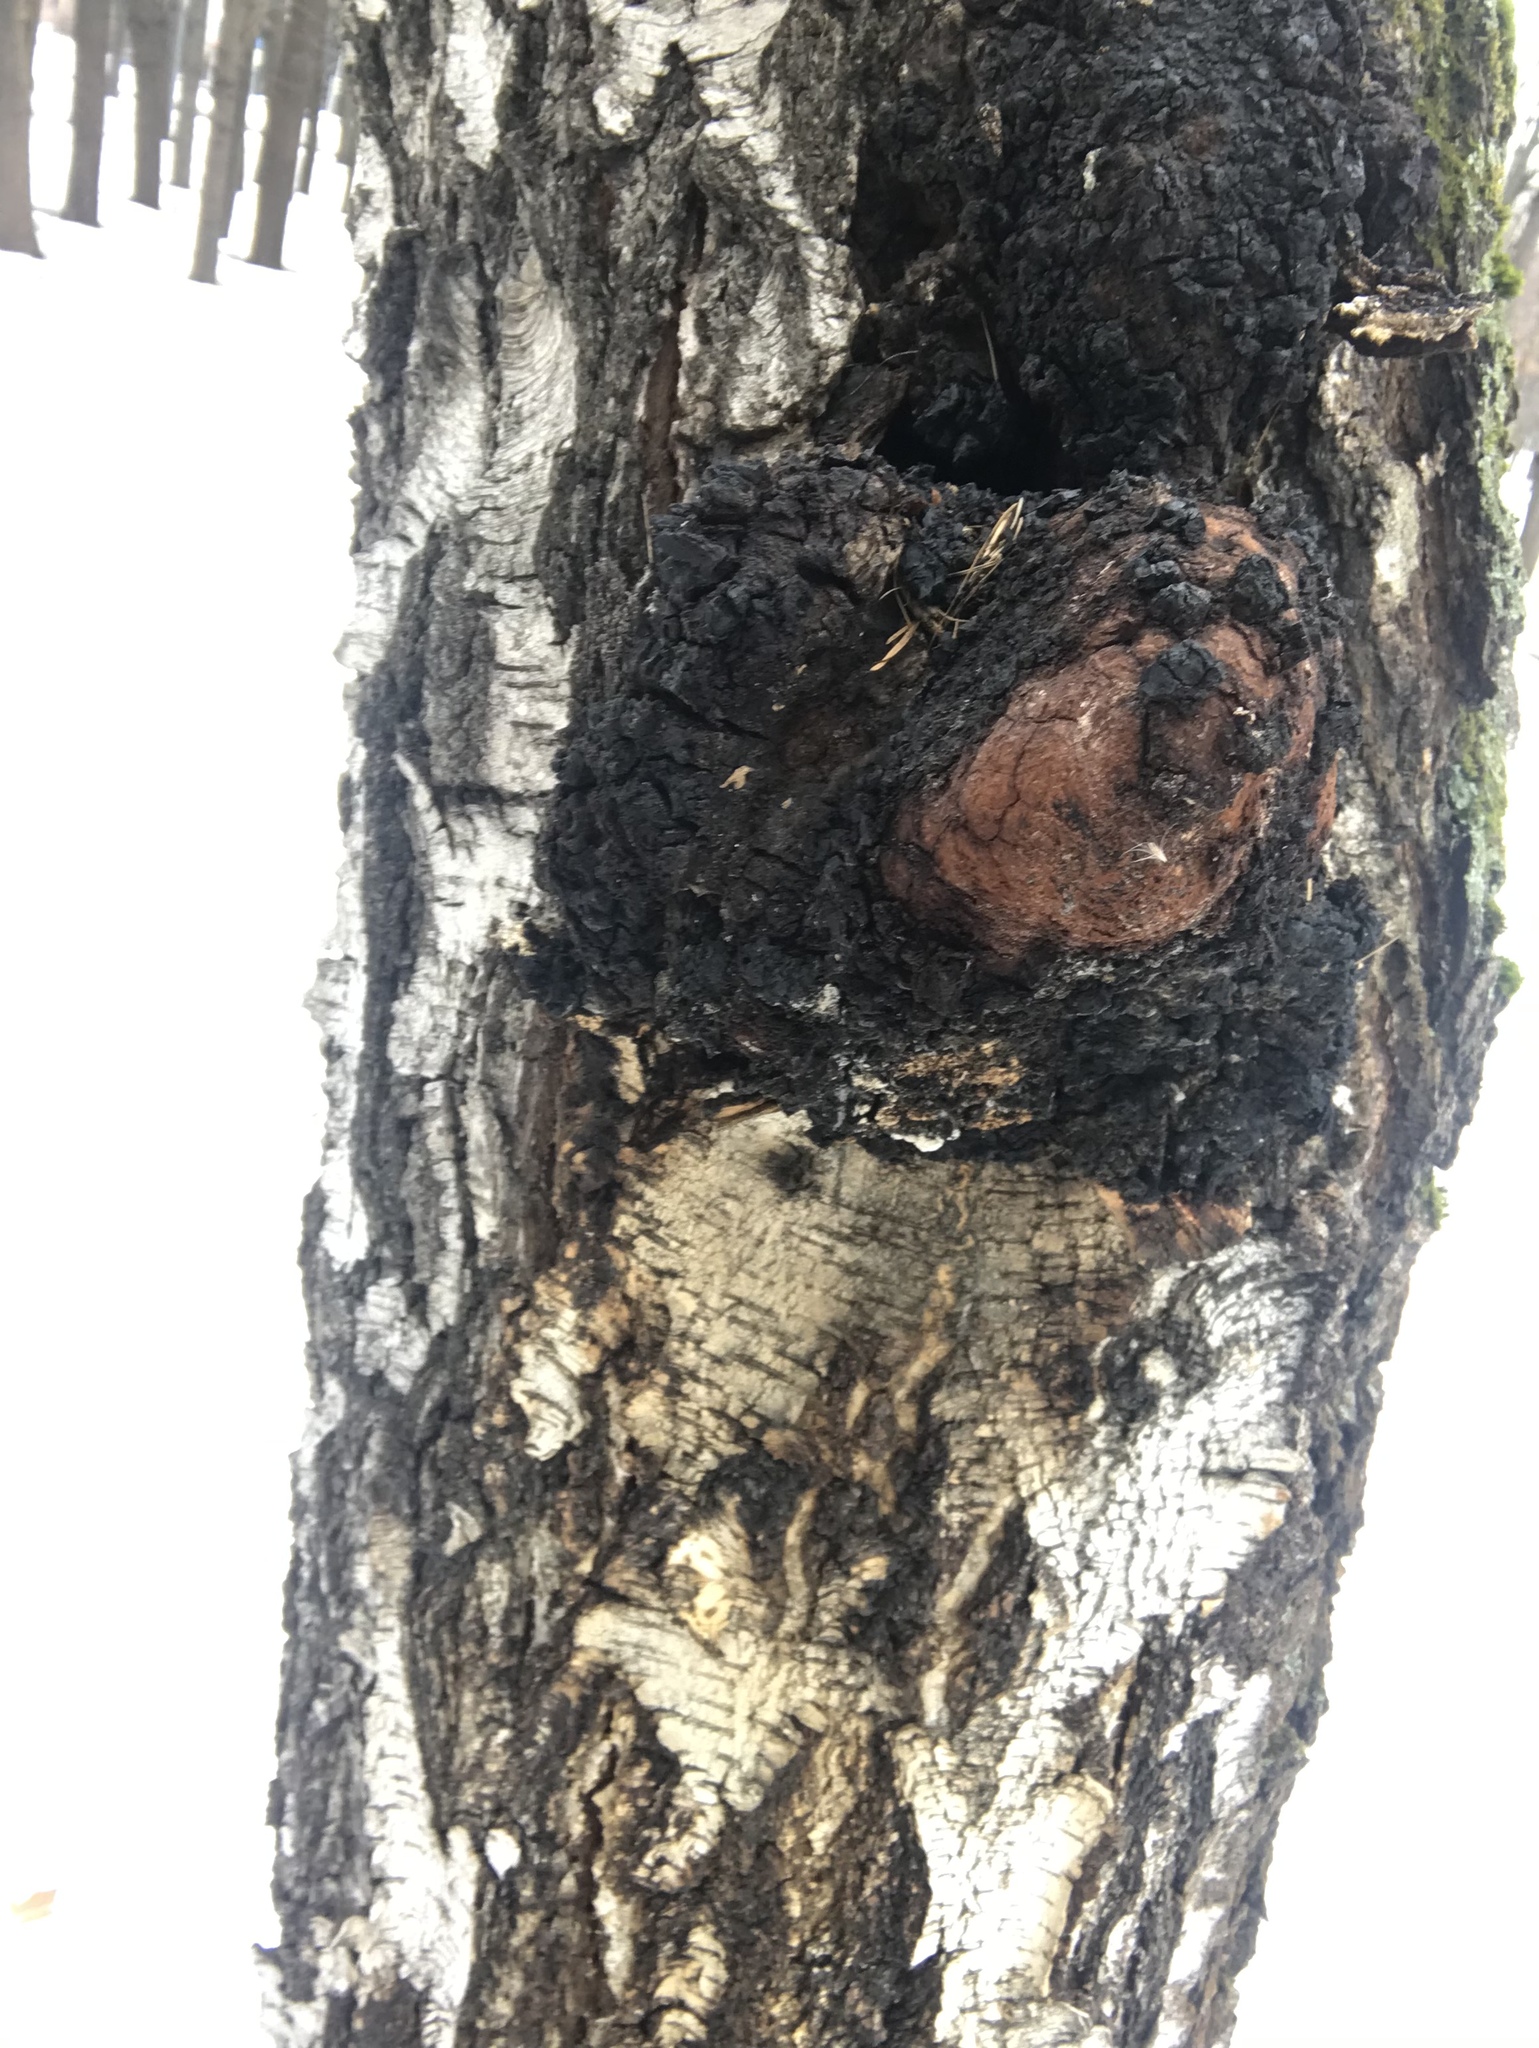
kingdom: Fungi
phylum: Basidiomycota
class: Agaricomycetes
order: Hymenochaetales
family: Hymenochaetaceae
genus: Inonotus
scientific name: Inonotus obliquus
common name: Chaga
